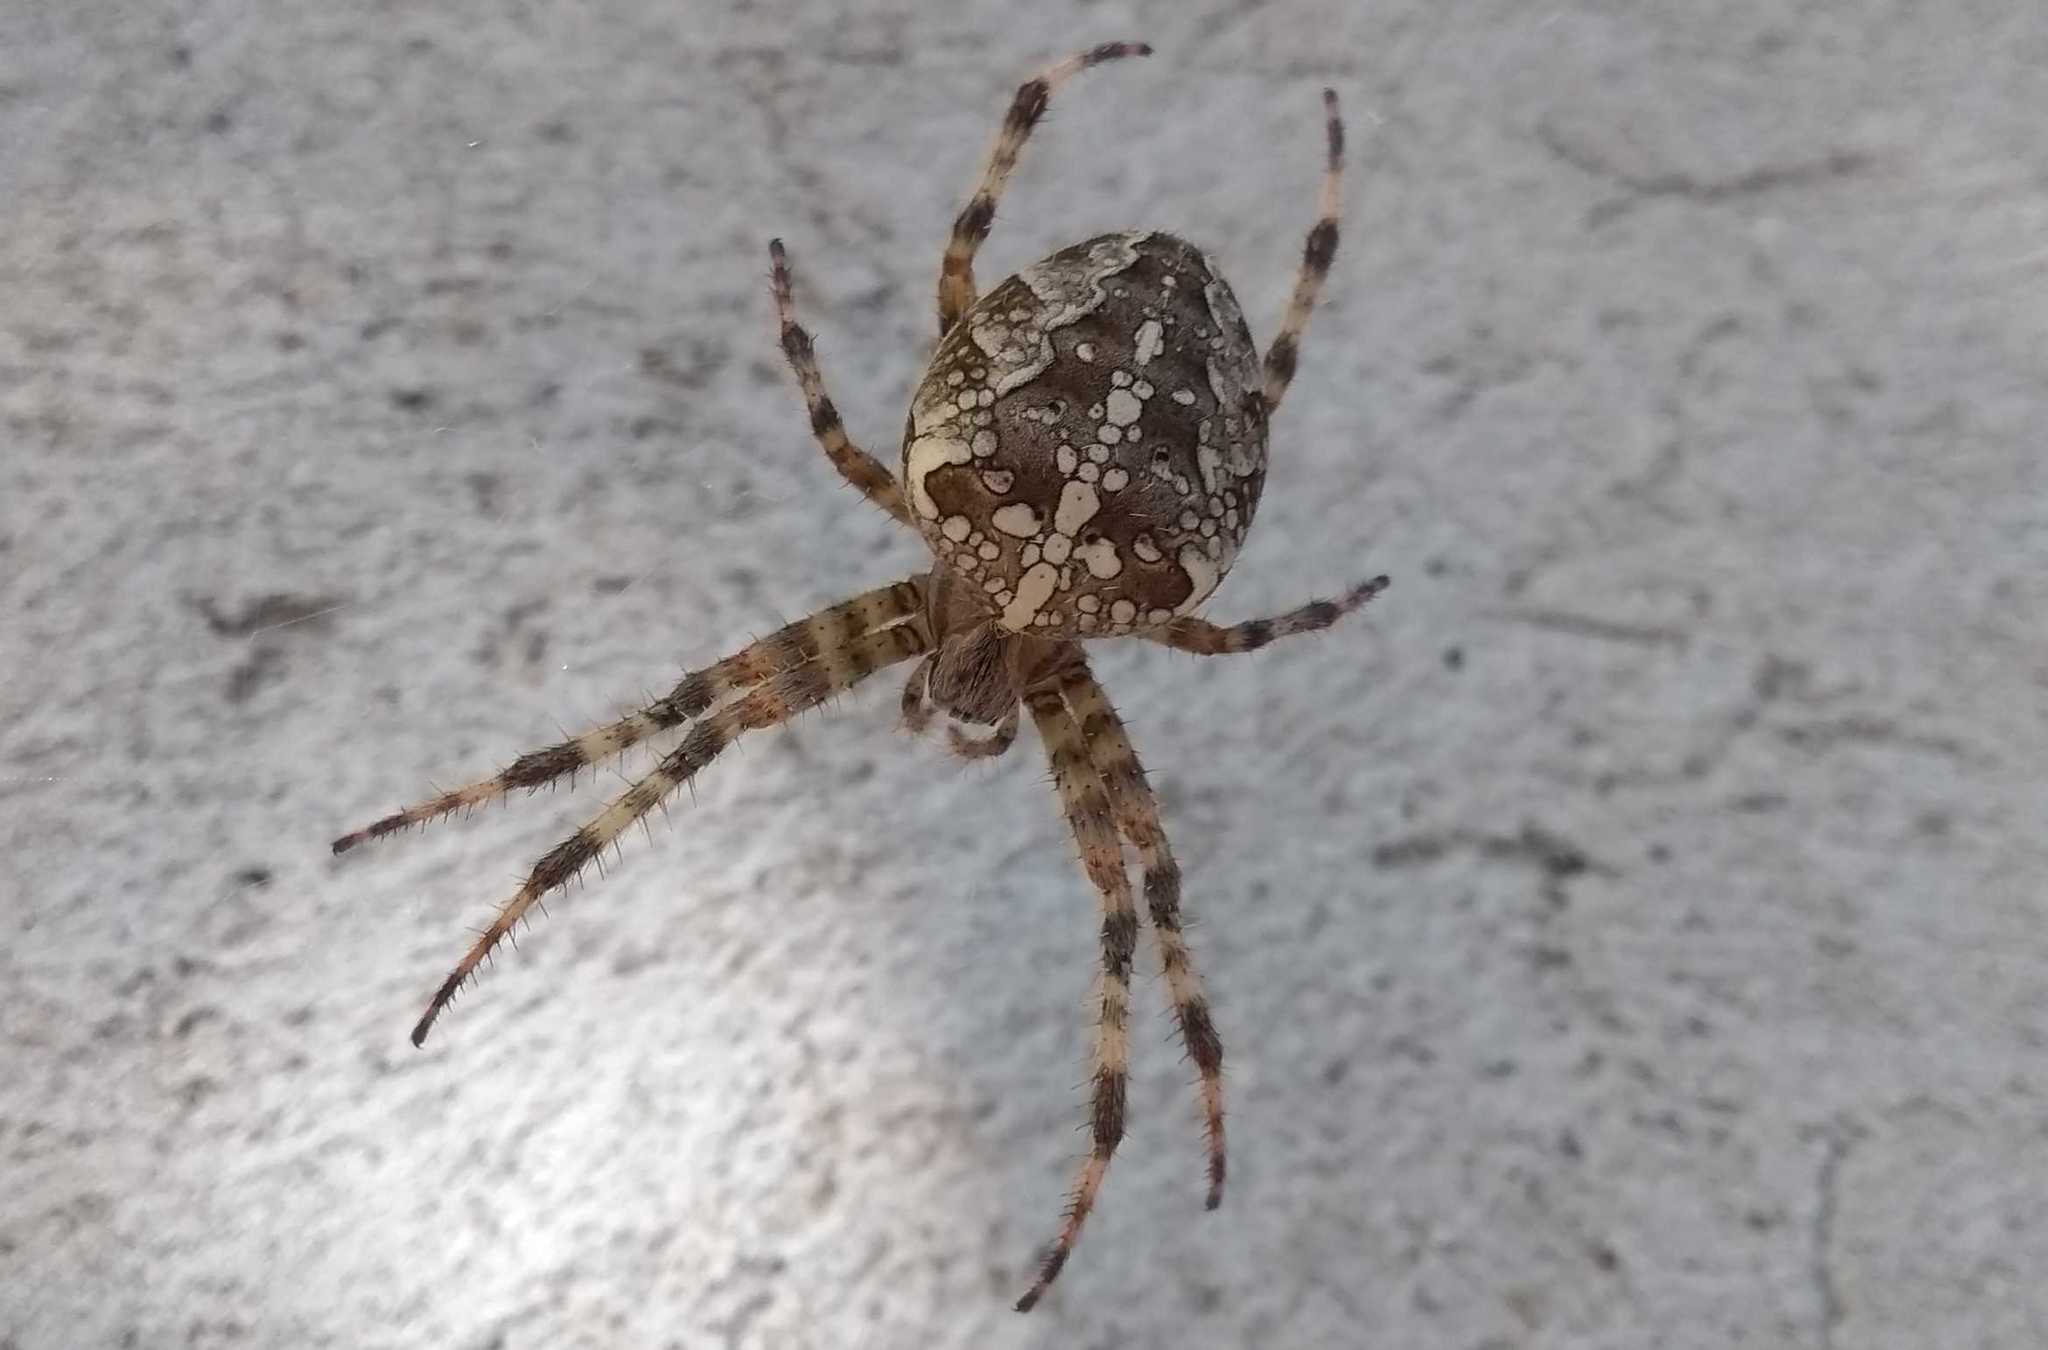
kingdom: Animalia
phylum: Arthropoda
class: Arachnida
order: Araneae
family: Araneidae
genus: Araneus
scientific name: Araneus diadematus
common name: Cross orbweaver
